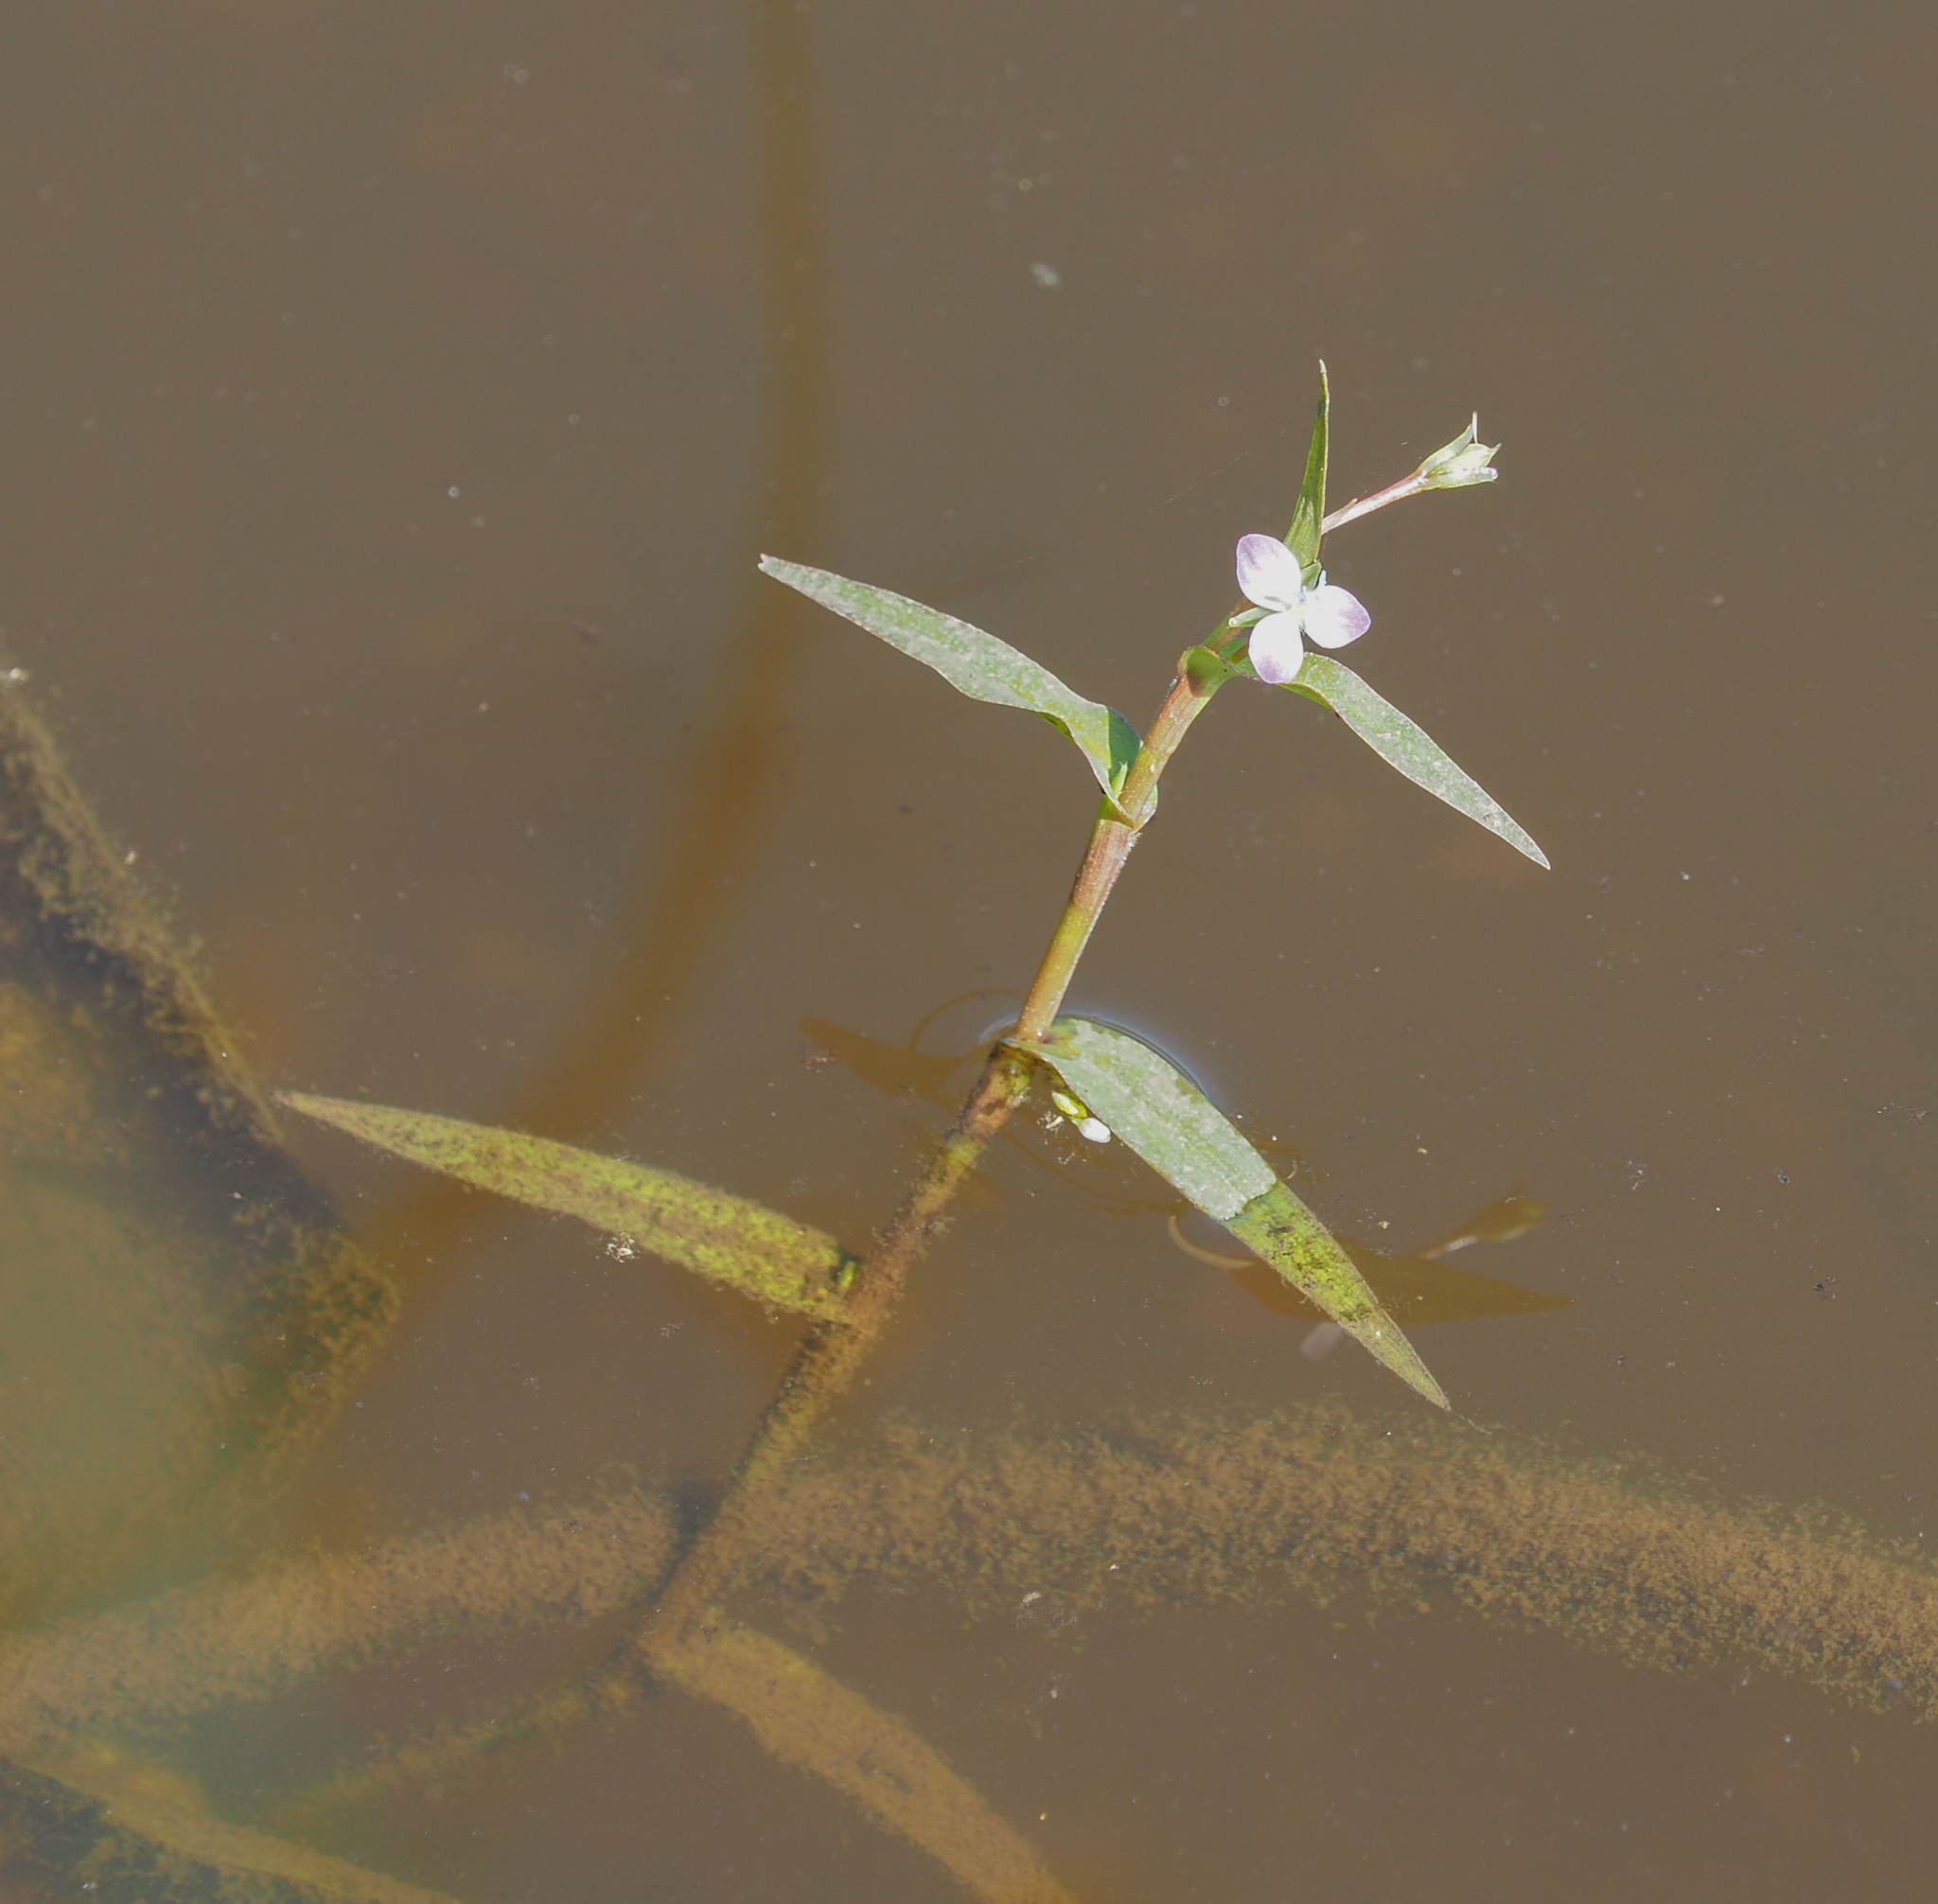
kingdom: Plantae
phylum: Tracheophyta
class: Liliopsida
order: Commelinales
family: Commelinaceae
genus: Murdannia
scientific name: Murdannia keisak
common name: Wartremoving herb
